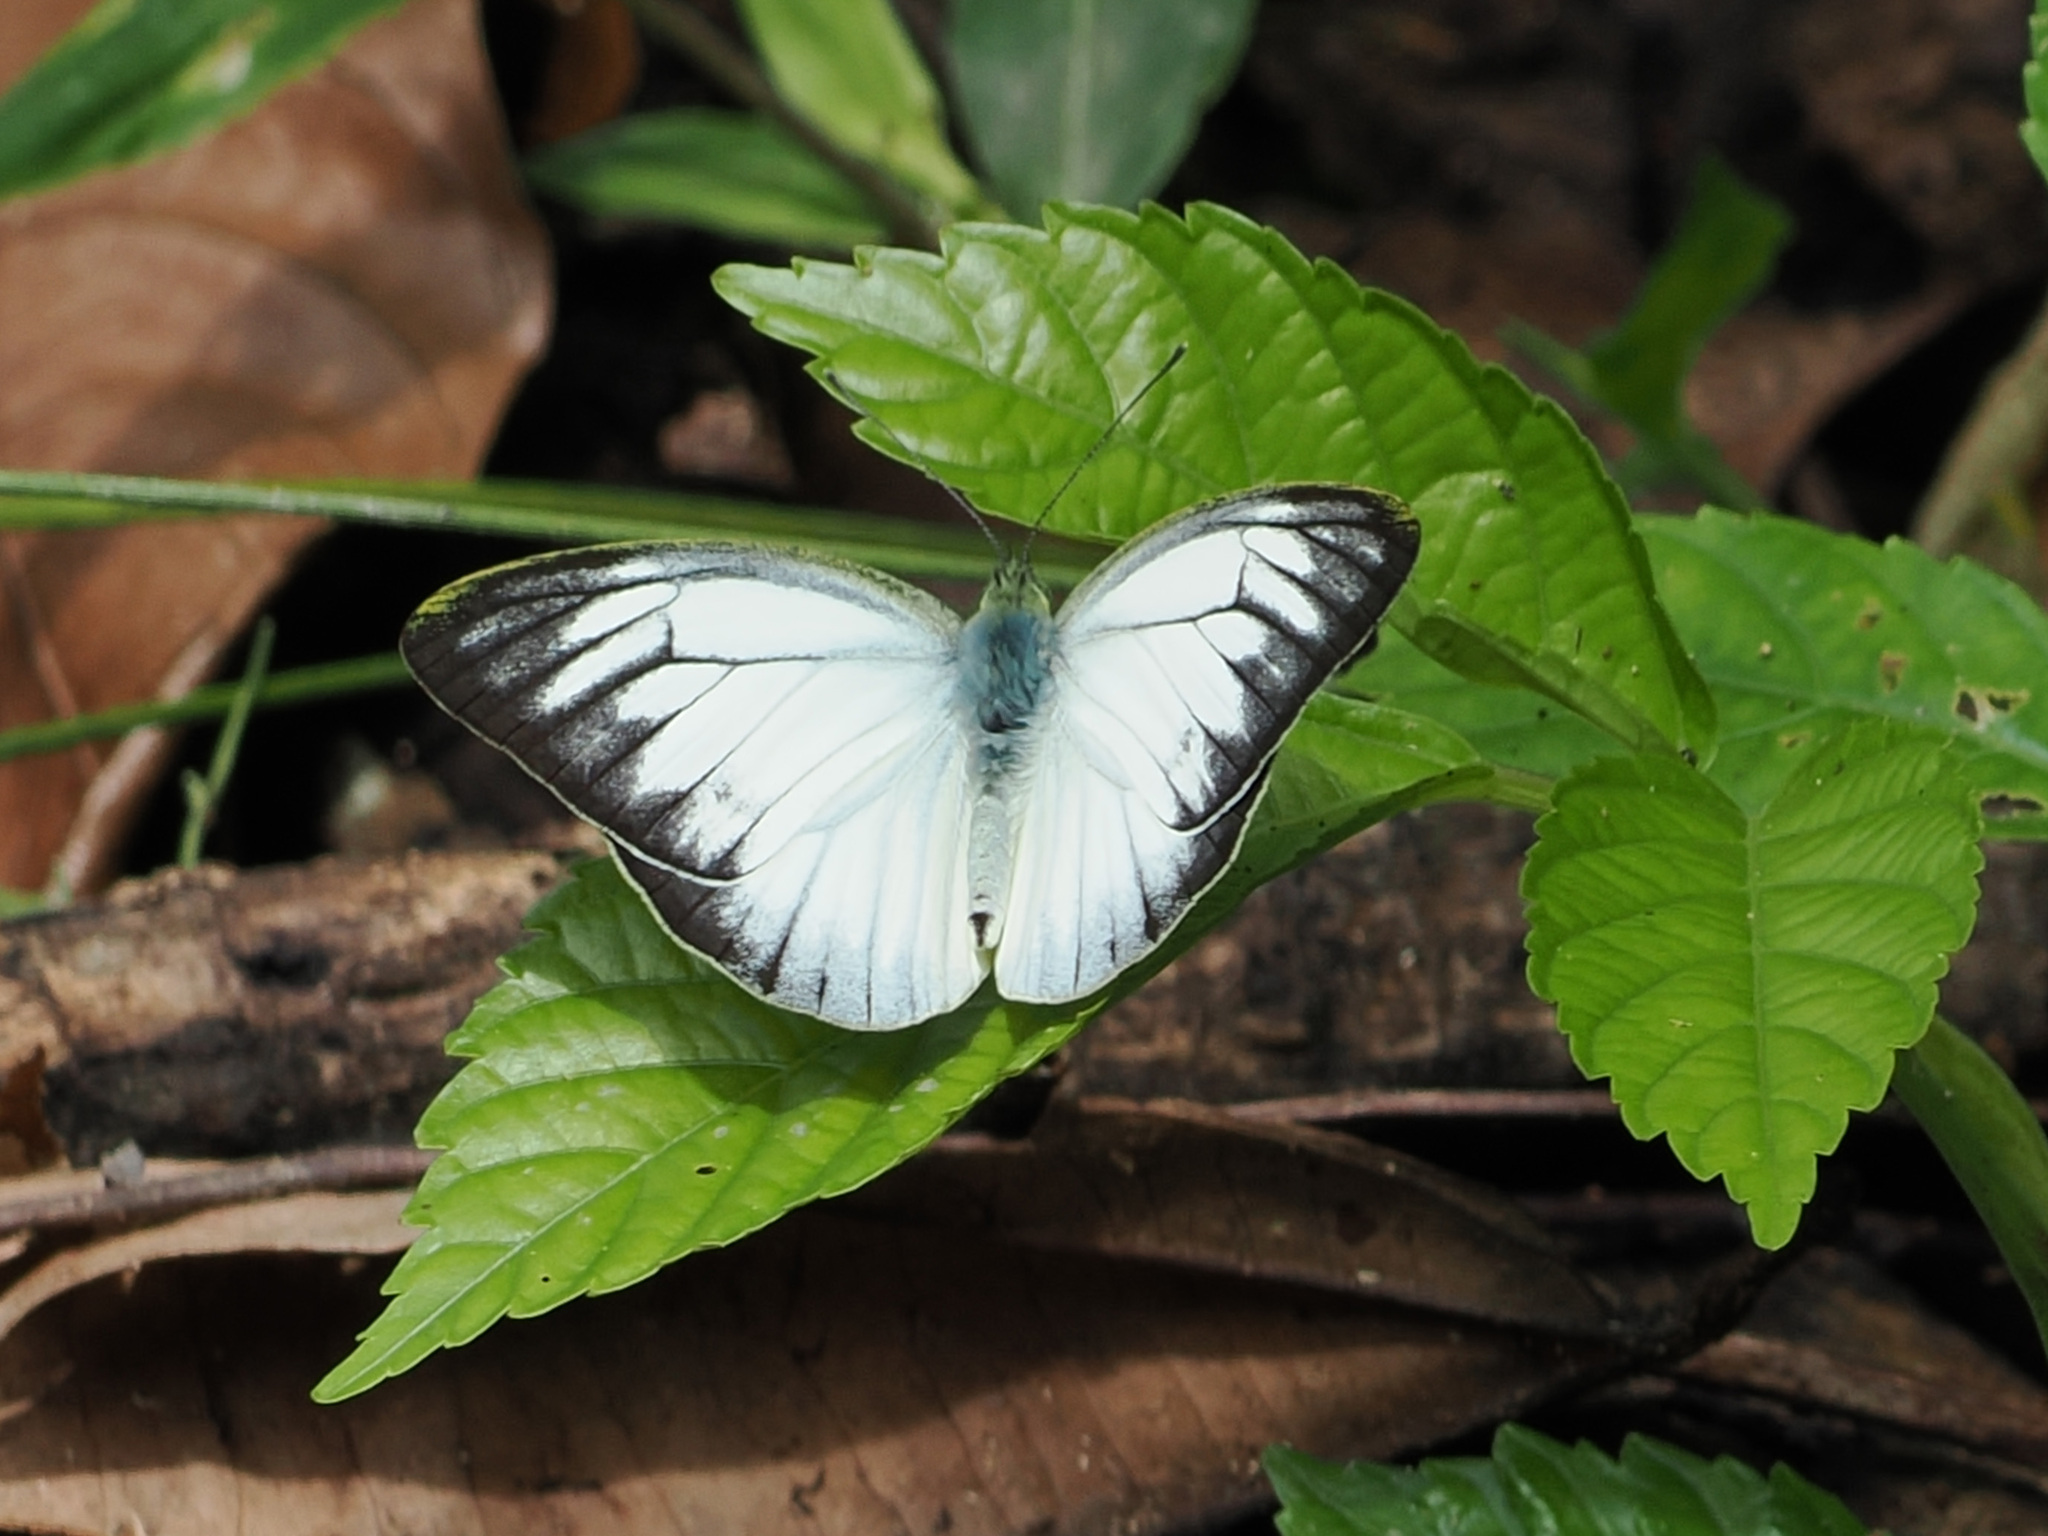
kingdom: Animalia
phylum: Arthropoda
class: Insecta
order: Lepidoptera
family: Pieridae
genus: Cepora
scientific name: Cepora nerissa
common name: Common gull
